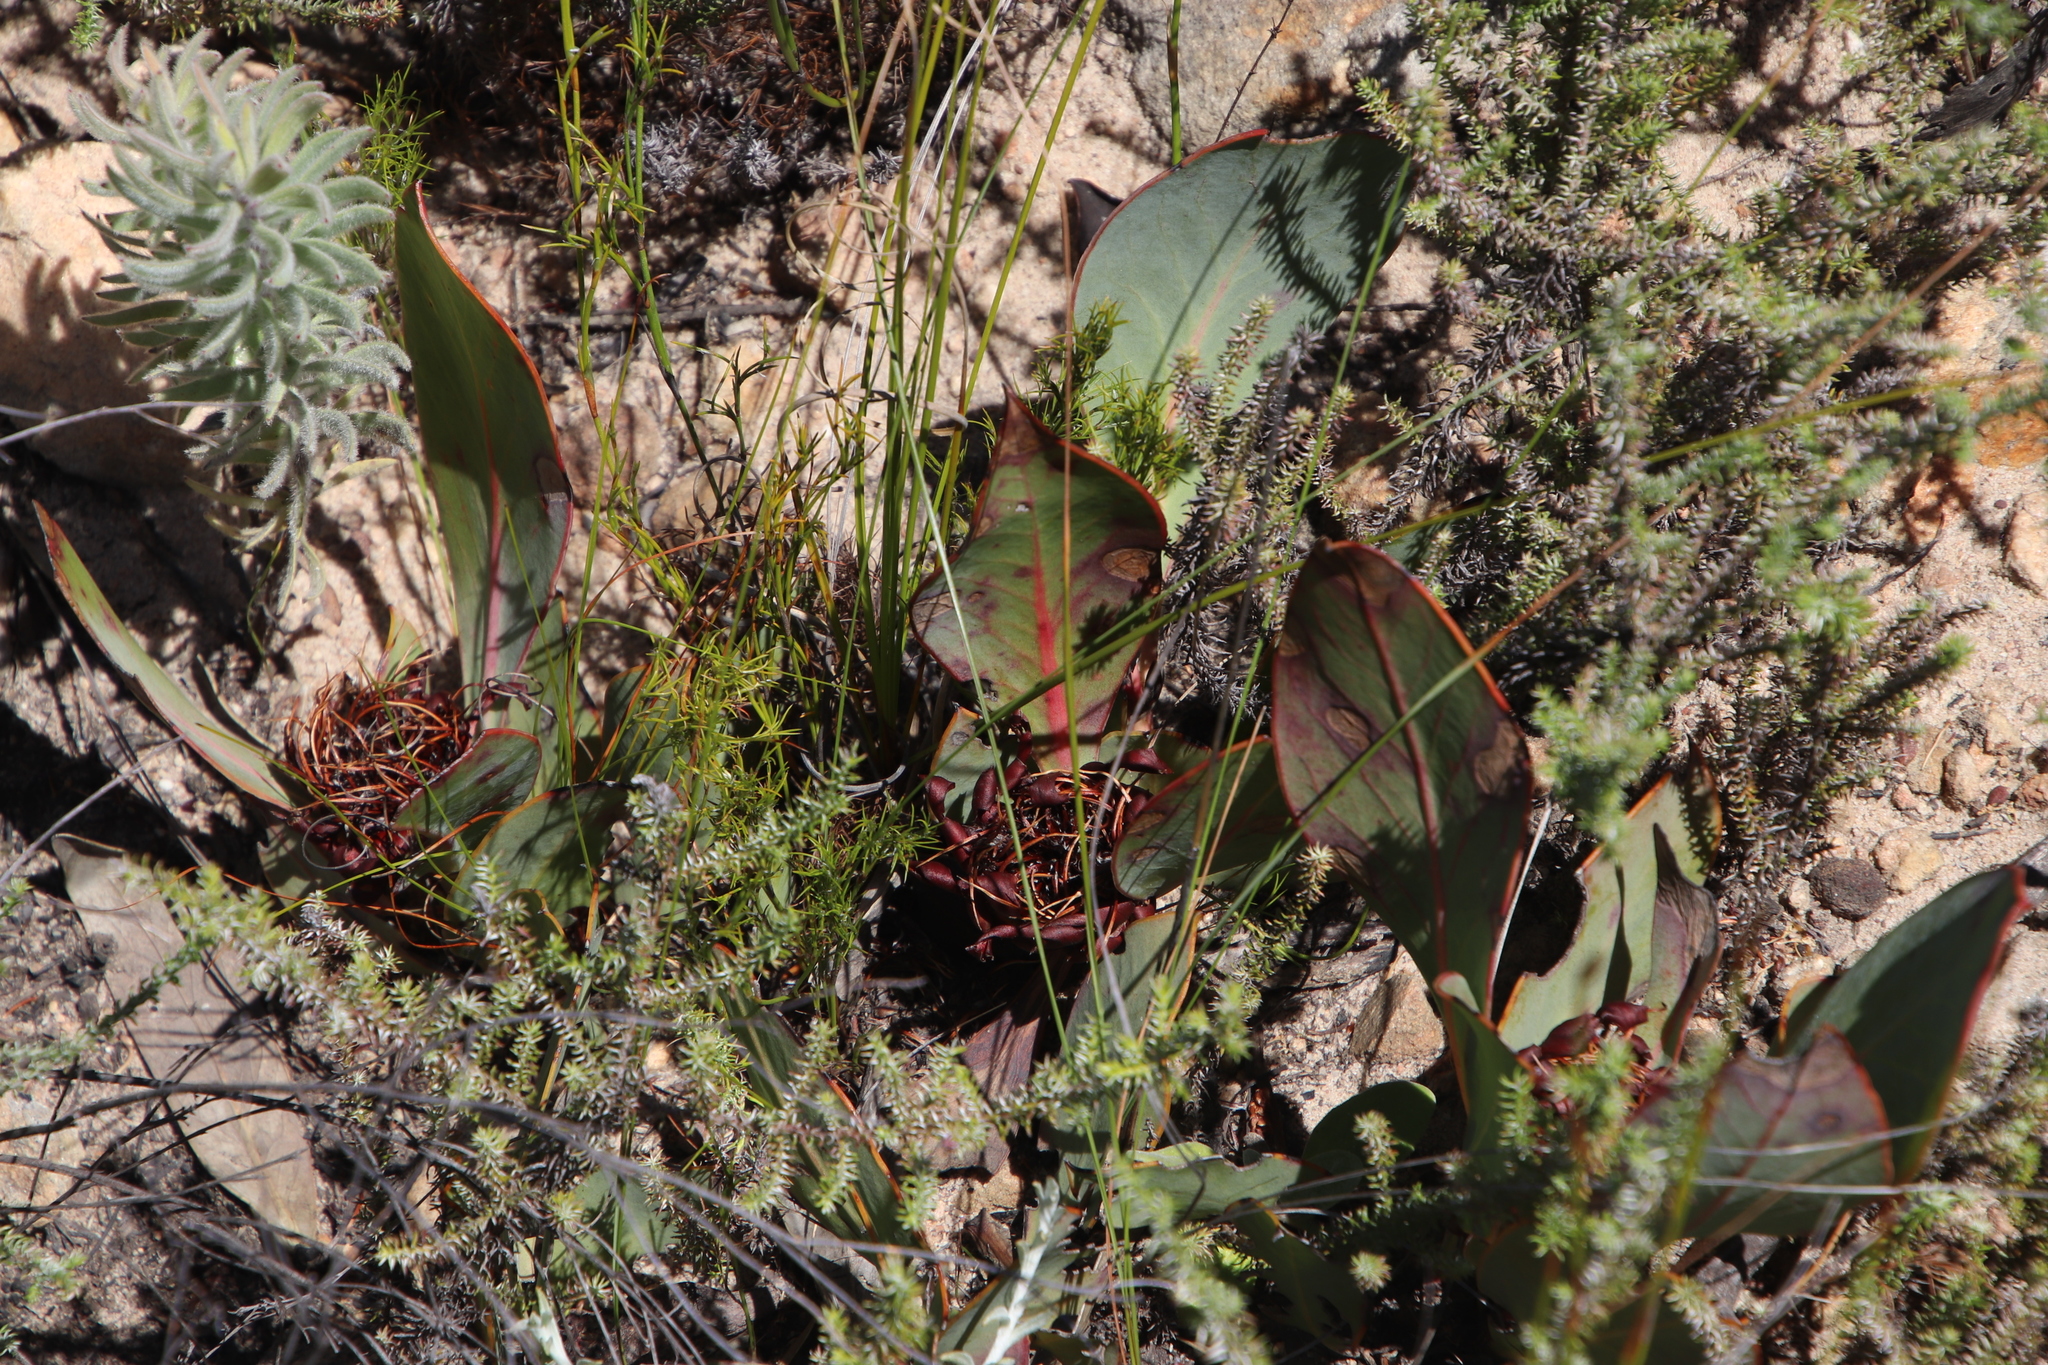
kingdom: Plantae
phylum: Tracheophyta
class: Magnoliopsida
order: Proteales
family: Proteaceae
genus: Protea
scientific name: Protea acaulos
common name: Common ground sugarbush
